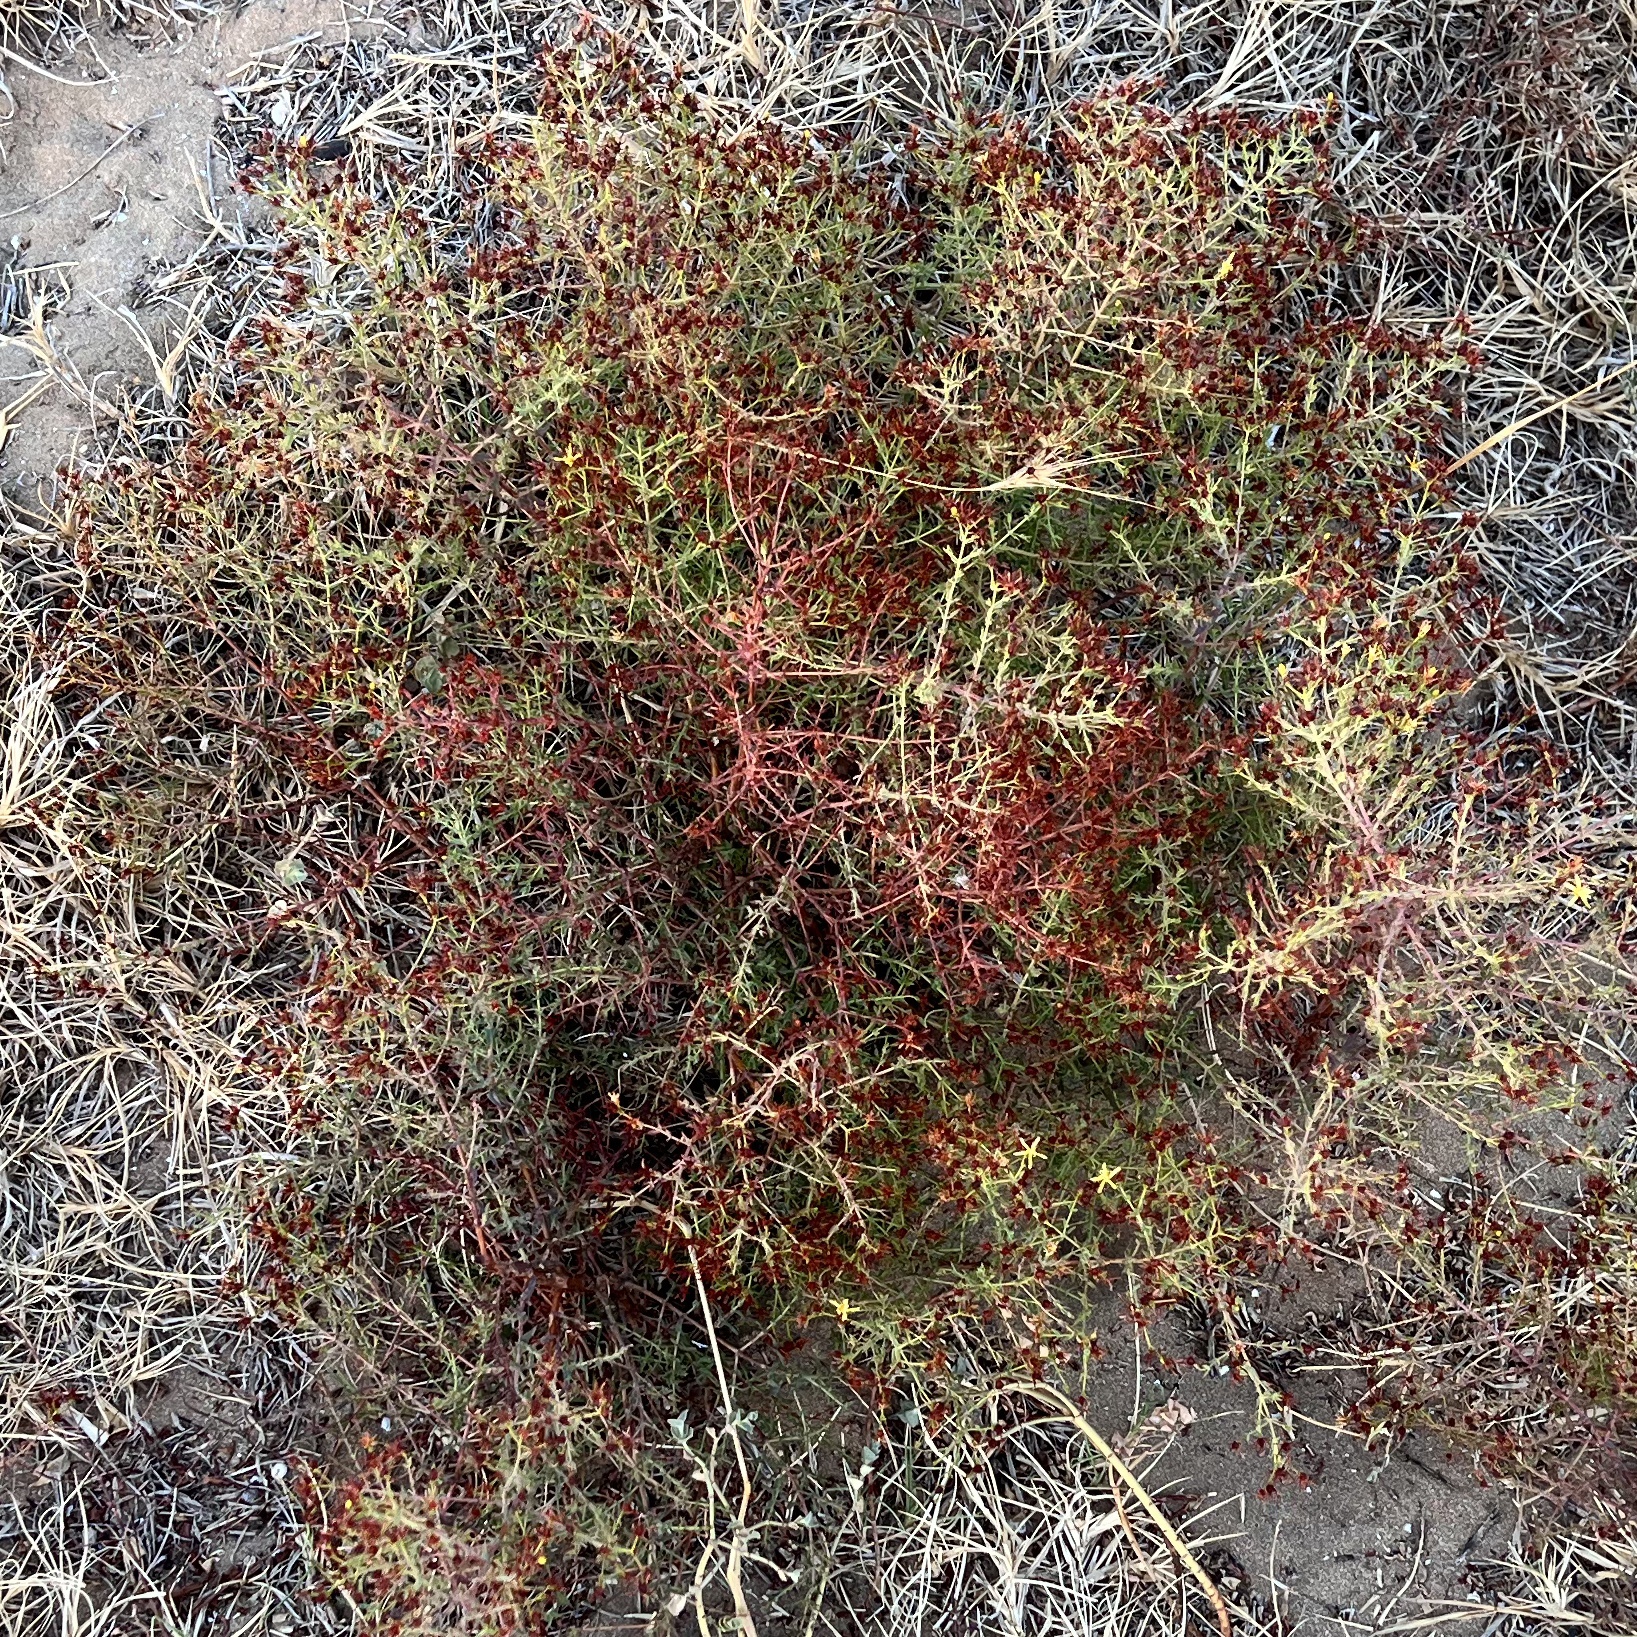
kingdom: Plantae
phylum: Tracheophyta
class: Magnoliopsida
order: Malpighiales
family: Hypericaceae
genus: Hypericum
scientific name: Hypericum triquetrifolium
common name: Tangled hypericum
